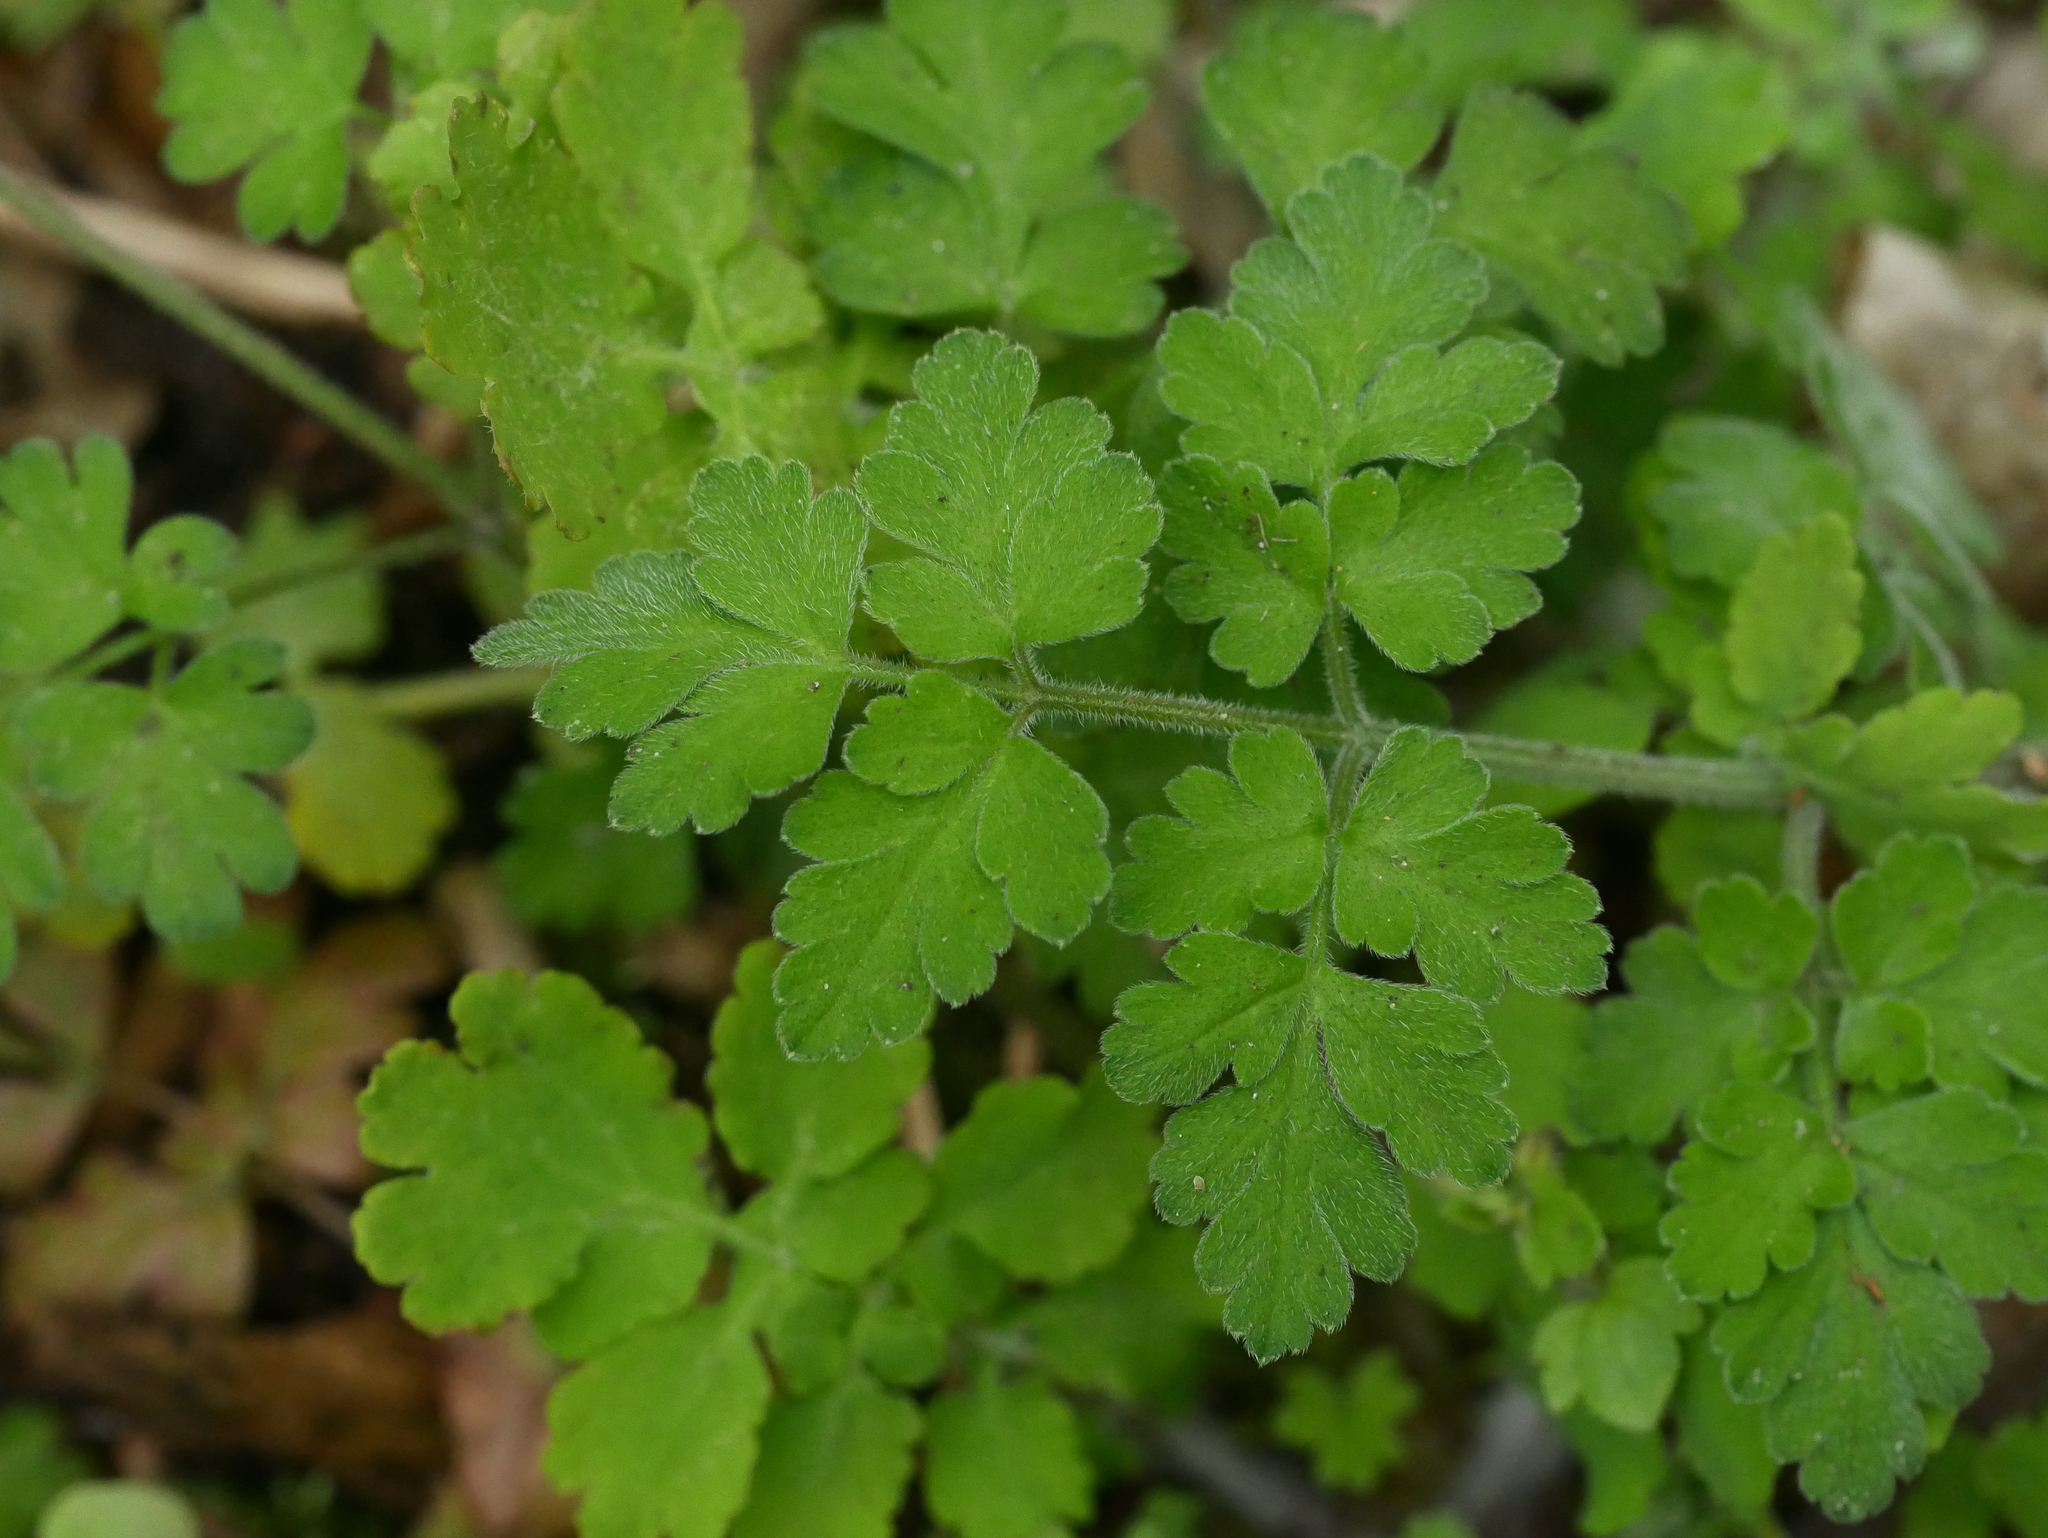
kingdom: Plantae
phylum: Tracheophyta
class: Magnoliopsida
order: Ranunculales
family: Papaveraceae
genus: Chelidonium
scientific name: Chelidonium majus
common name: Greater celandine
